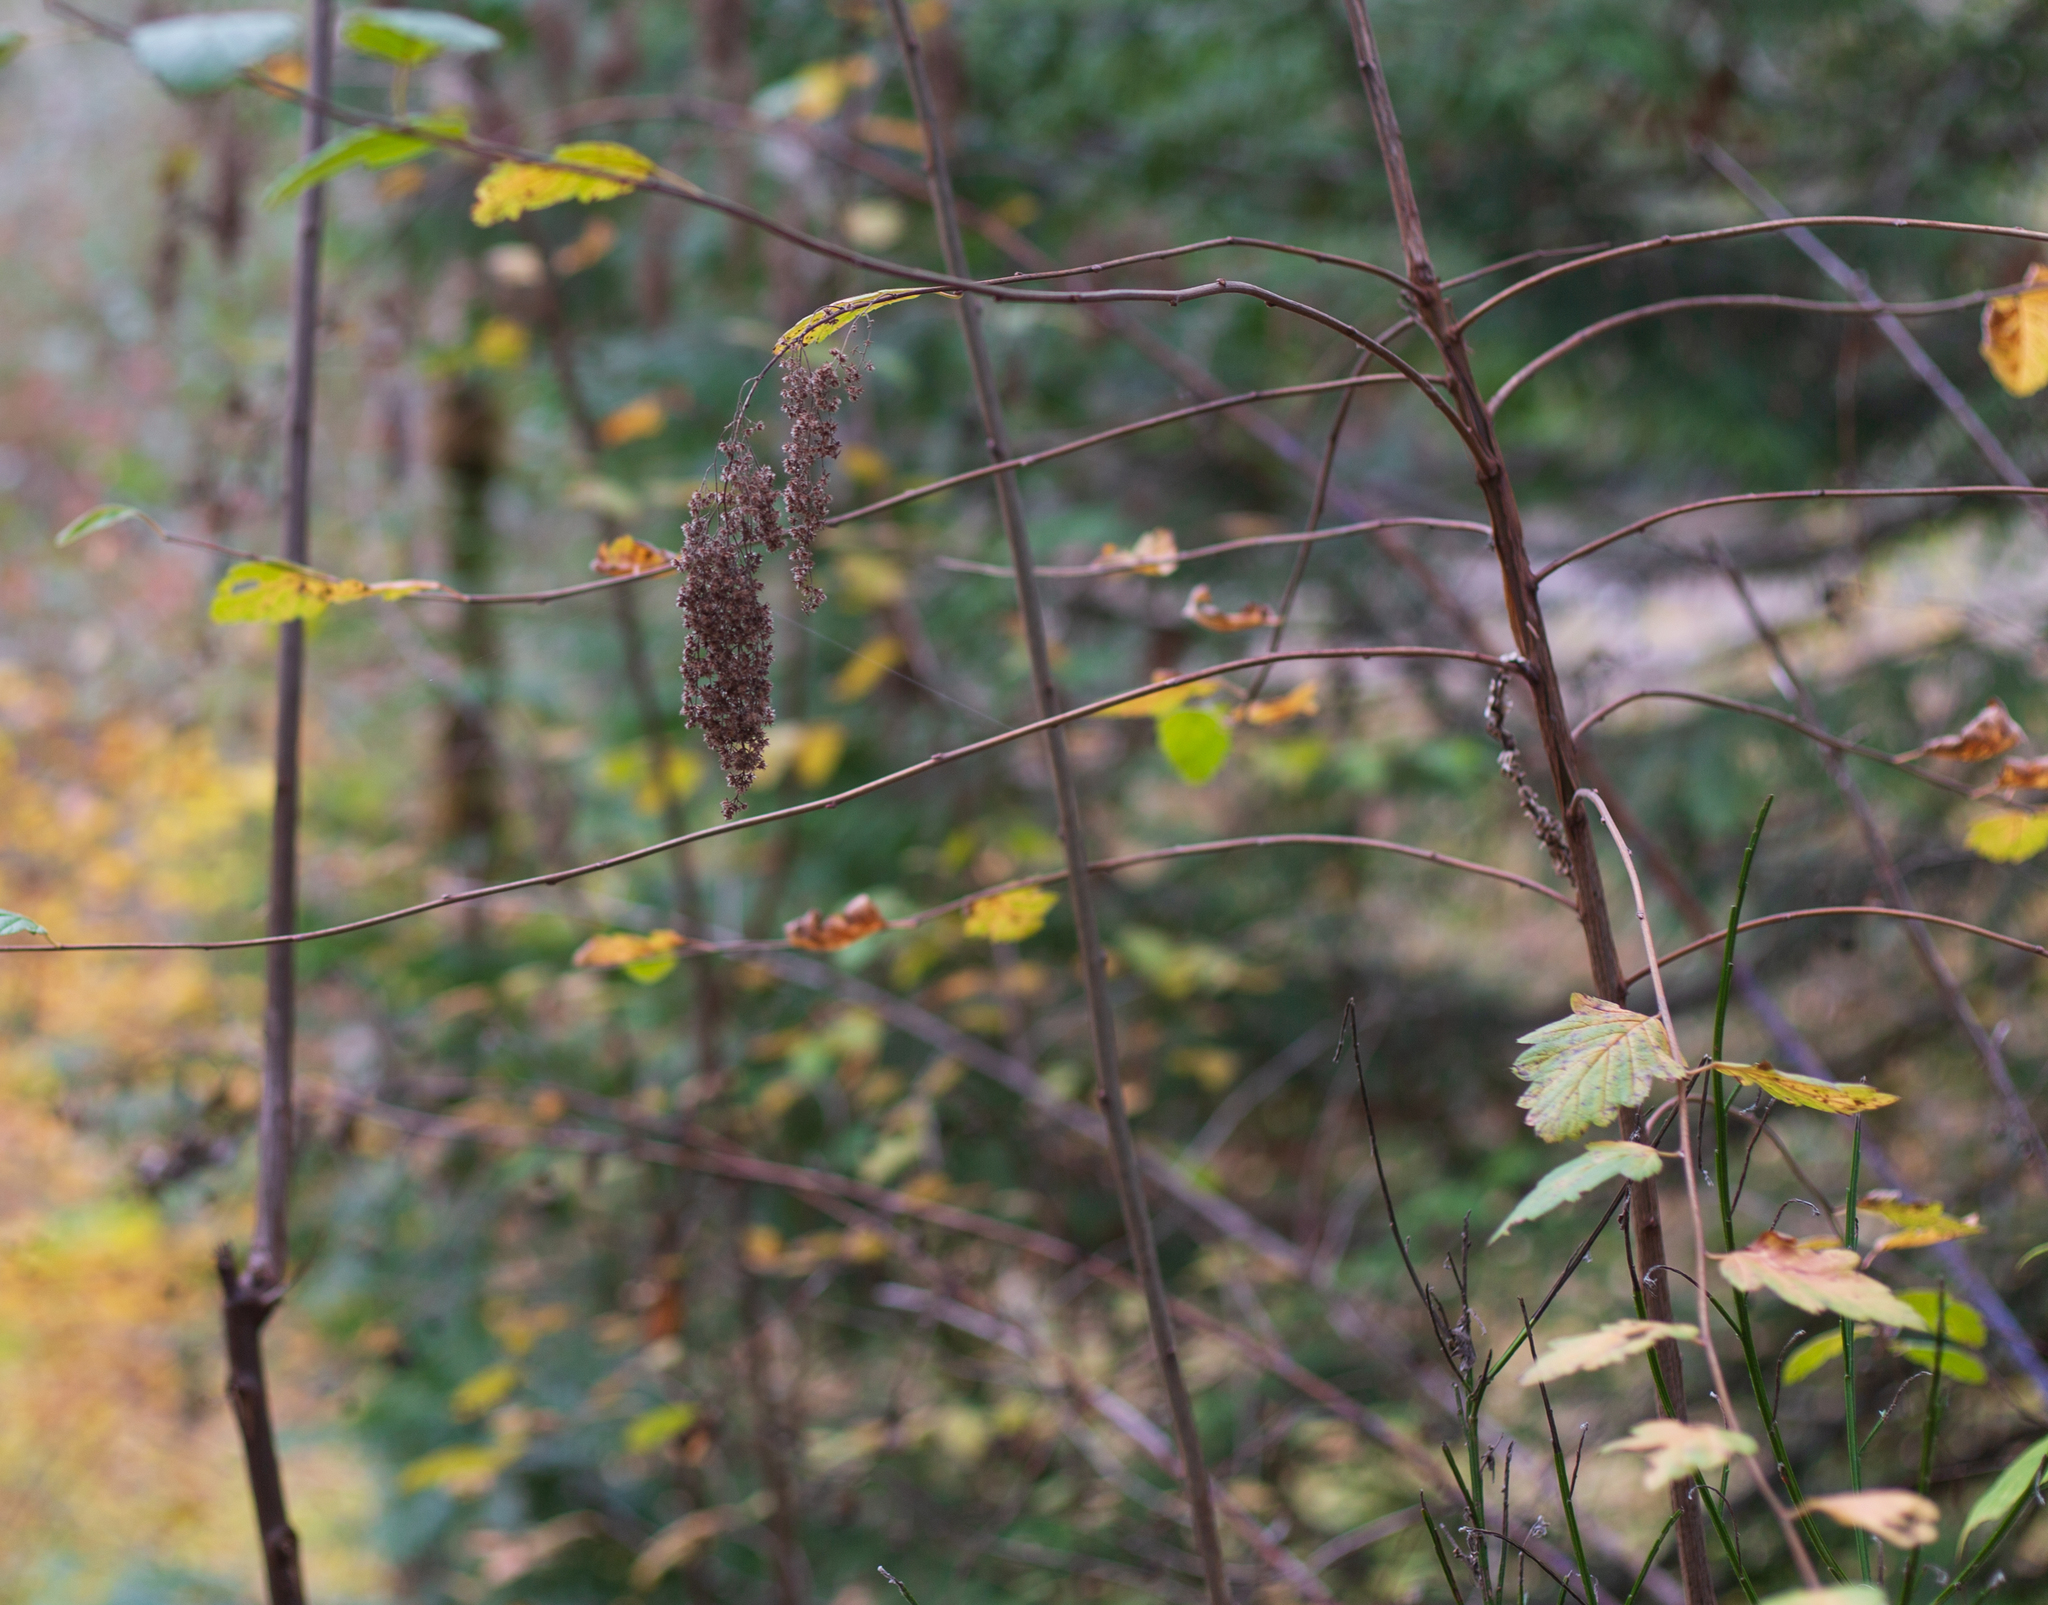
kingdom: Plantae
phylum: Tracheophyta
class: Magnoliopsida
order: Rosales
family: Rosaceae
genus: Holodiscus
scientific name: Holodiscus discolor
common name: Oceanspray
